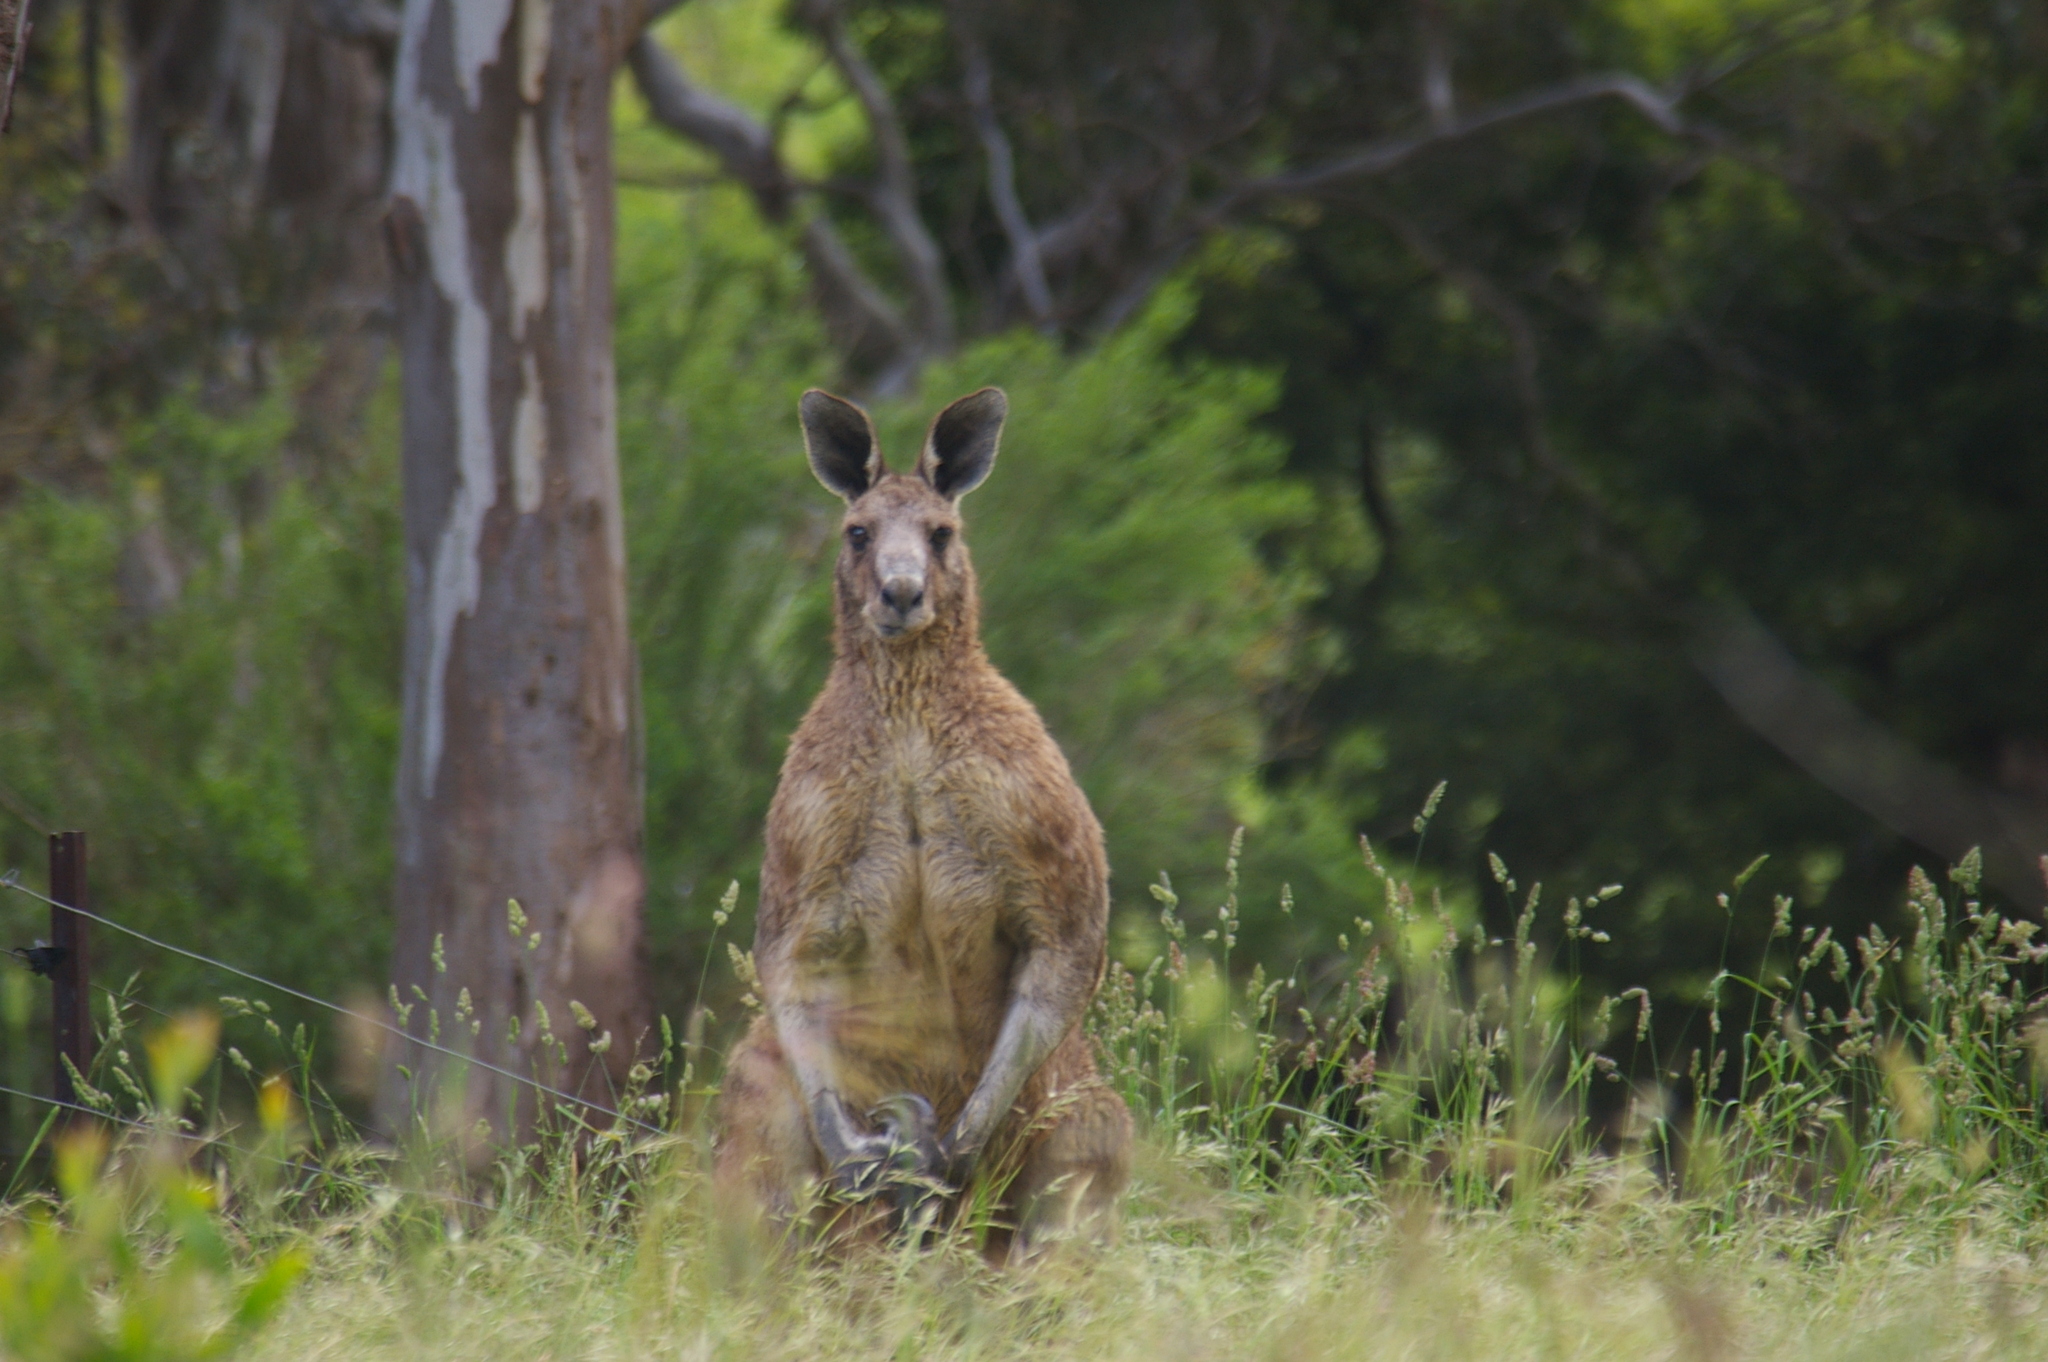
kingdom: Animalia
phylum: Chordata
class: Mammalia
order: Diprotodontia
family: Macropodidae
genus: Macropus
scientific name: Macropus giganteus
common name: Eastern grey kangaroo
